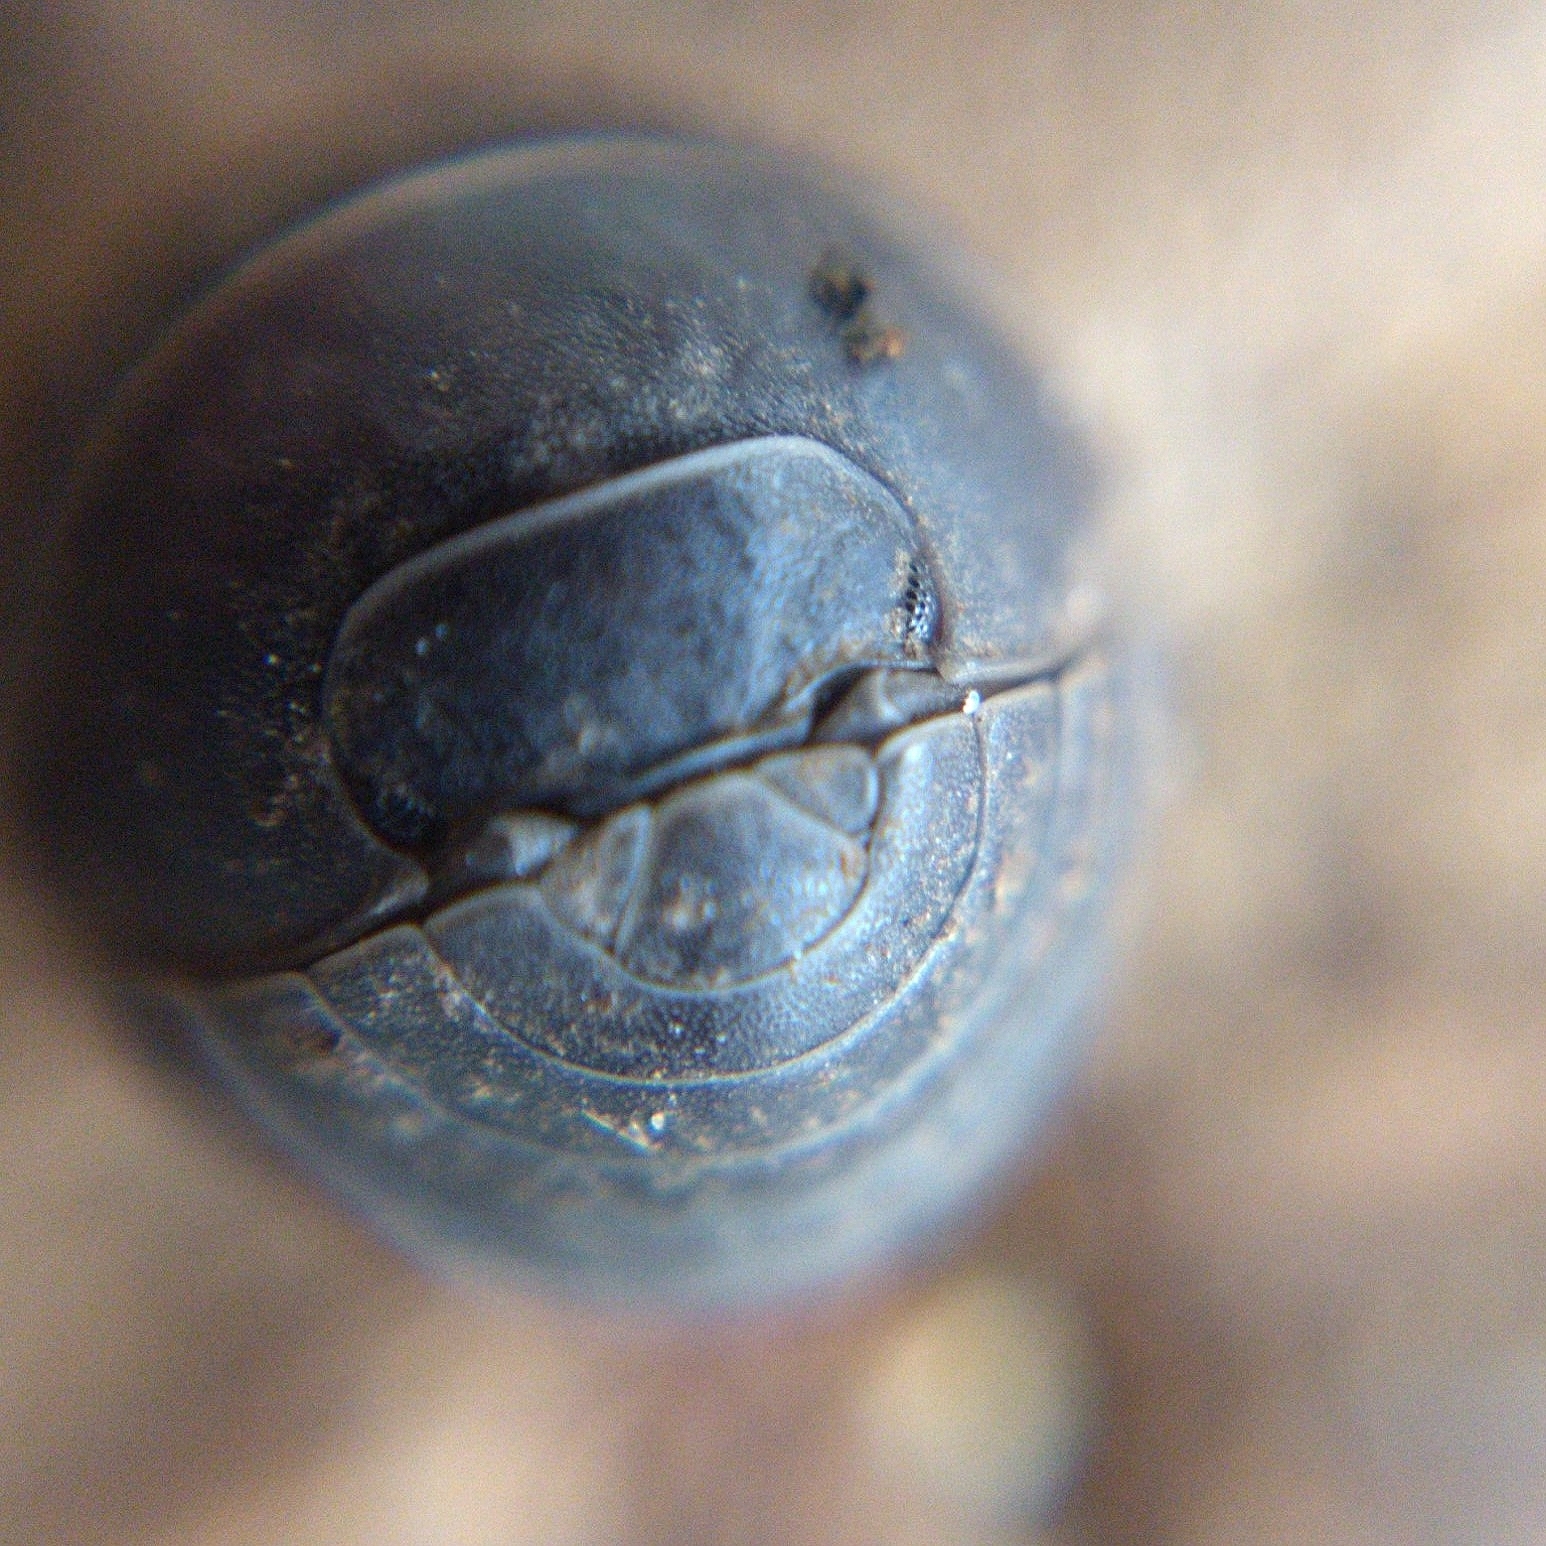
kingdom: Animalia
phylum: Arthropoda
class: Malacostraca
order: Isopoda
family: Armadillidiidae
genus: Armadillidium
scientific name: Armadillidium vulgare
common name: Common pill woodlouse
